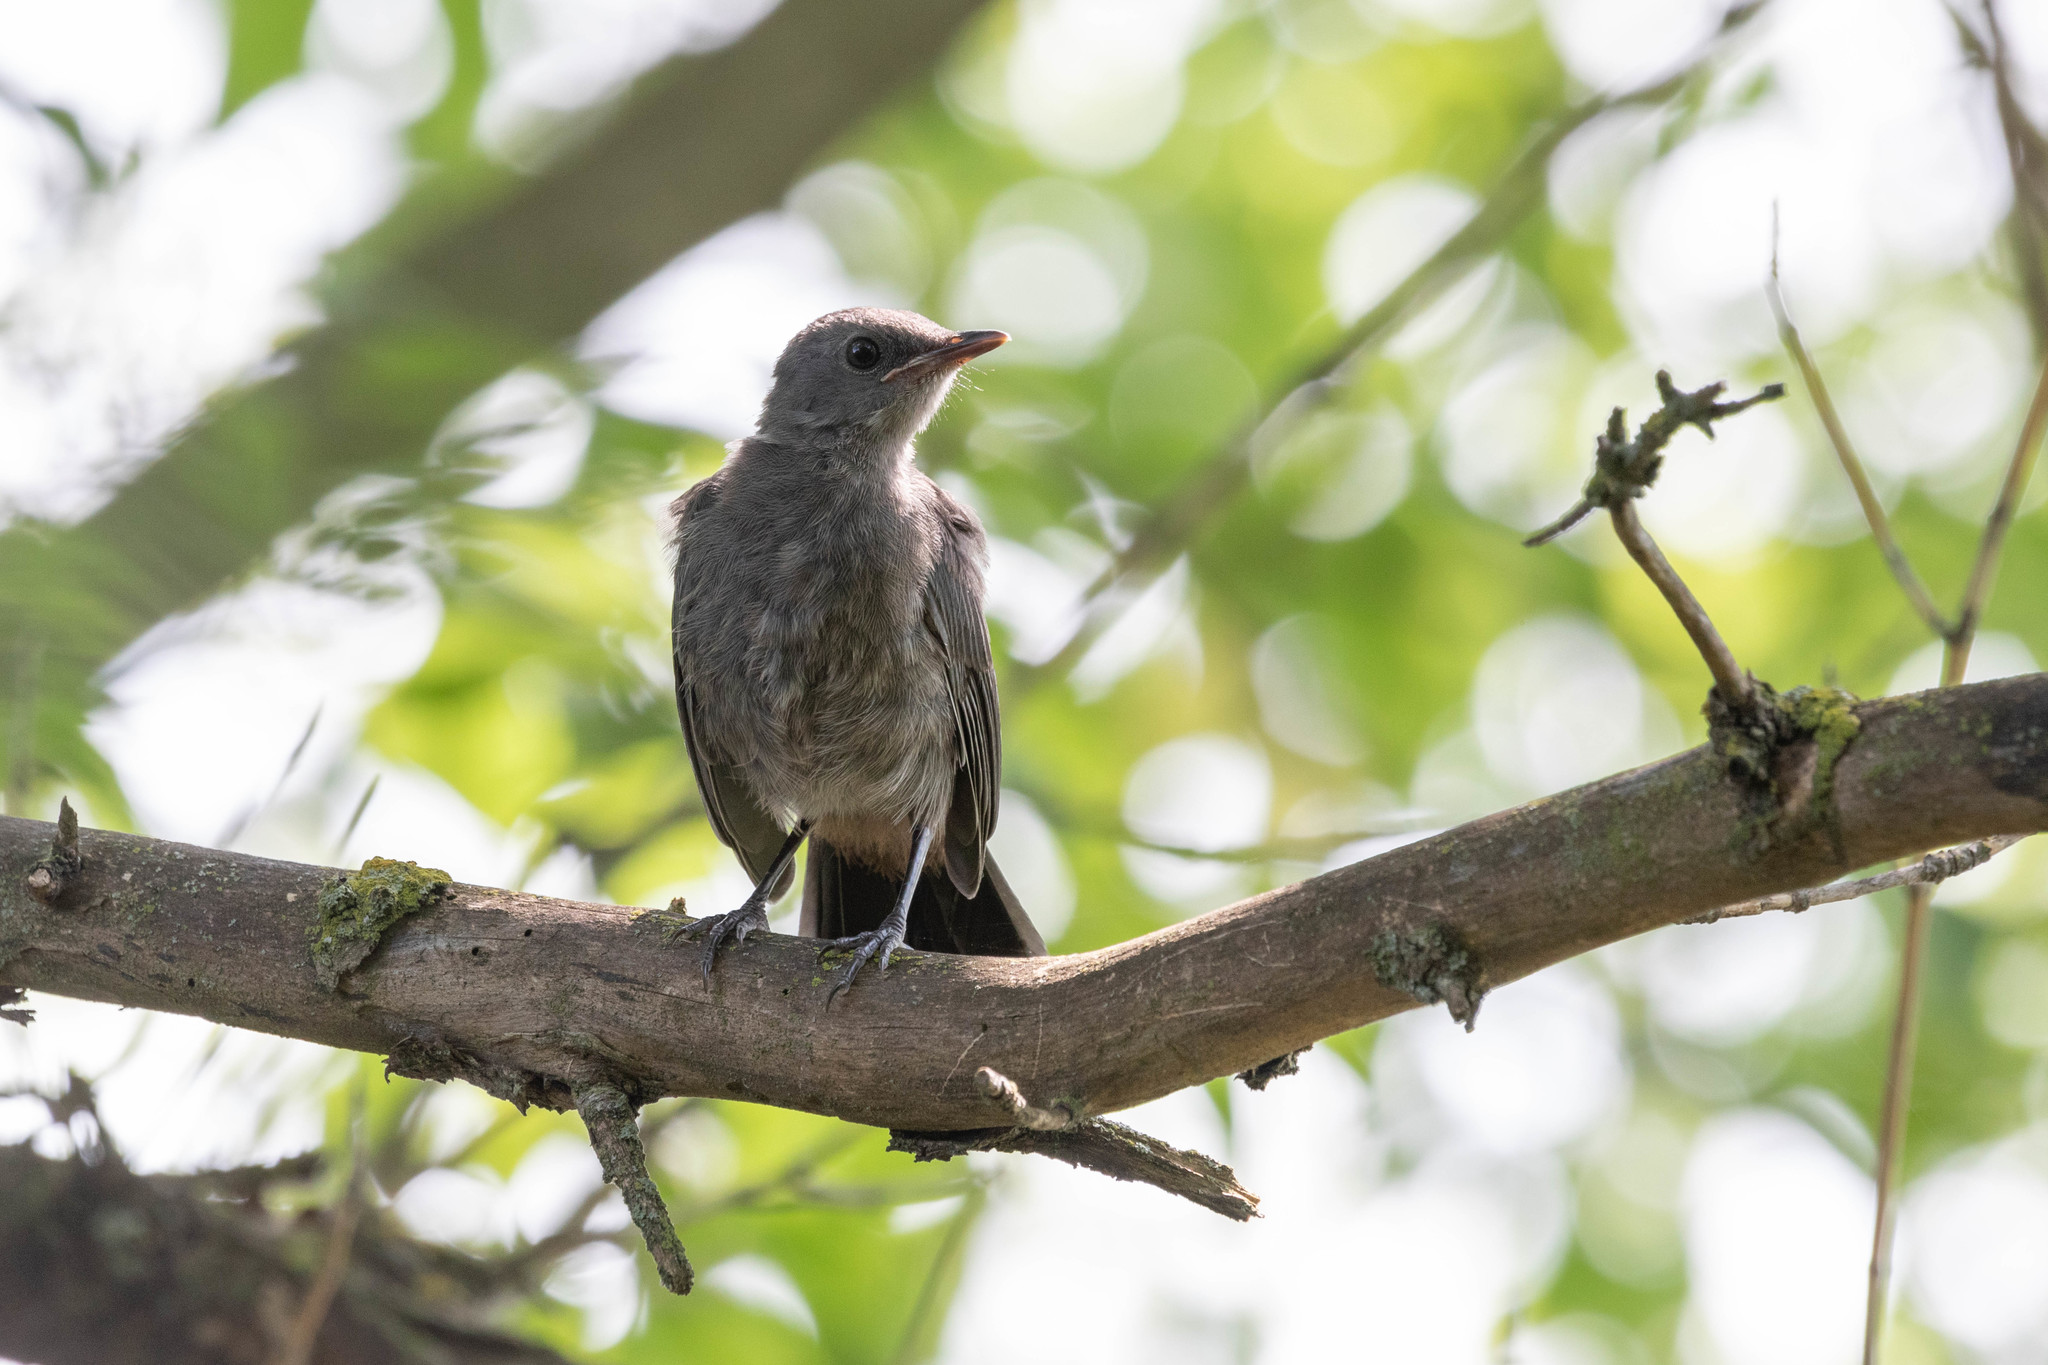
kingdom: Animalia
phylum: Chordata
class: Aves
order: Passeriformes
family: Mimidae
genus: Dumetella
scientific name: Dumetella carolinensis
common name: Gray catbird
